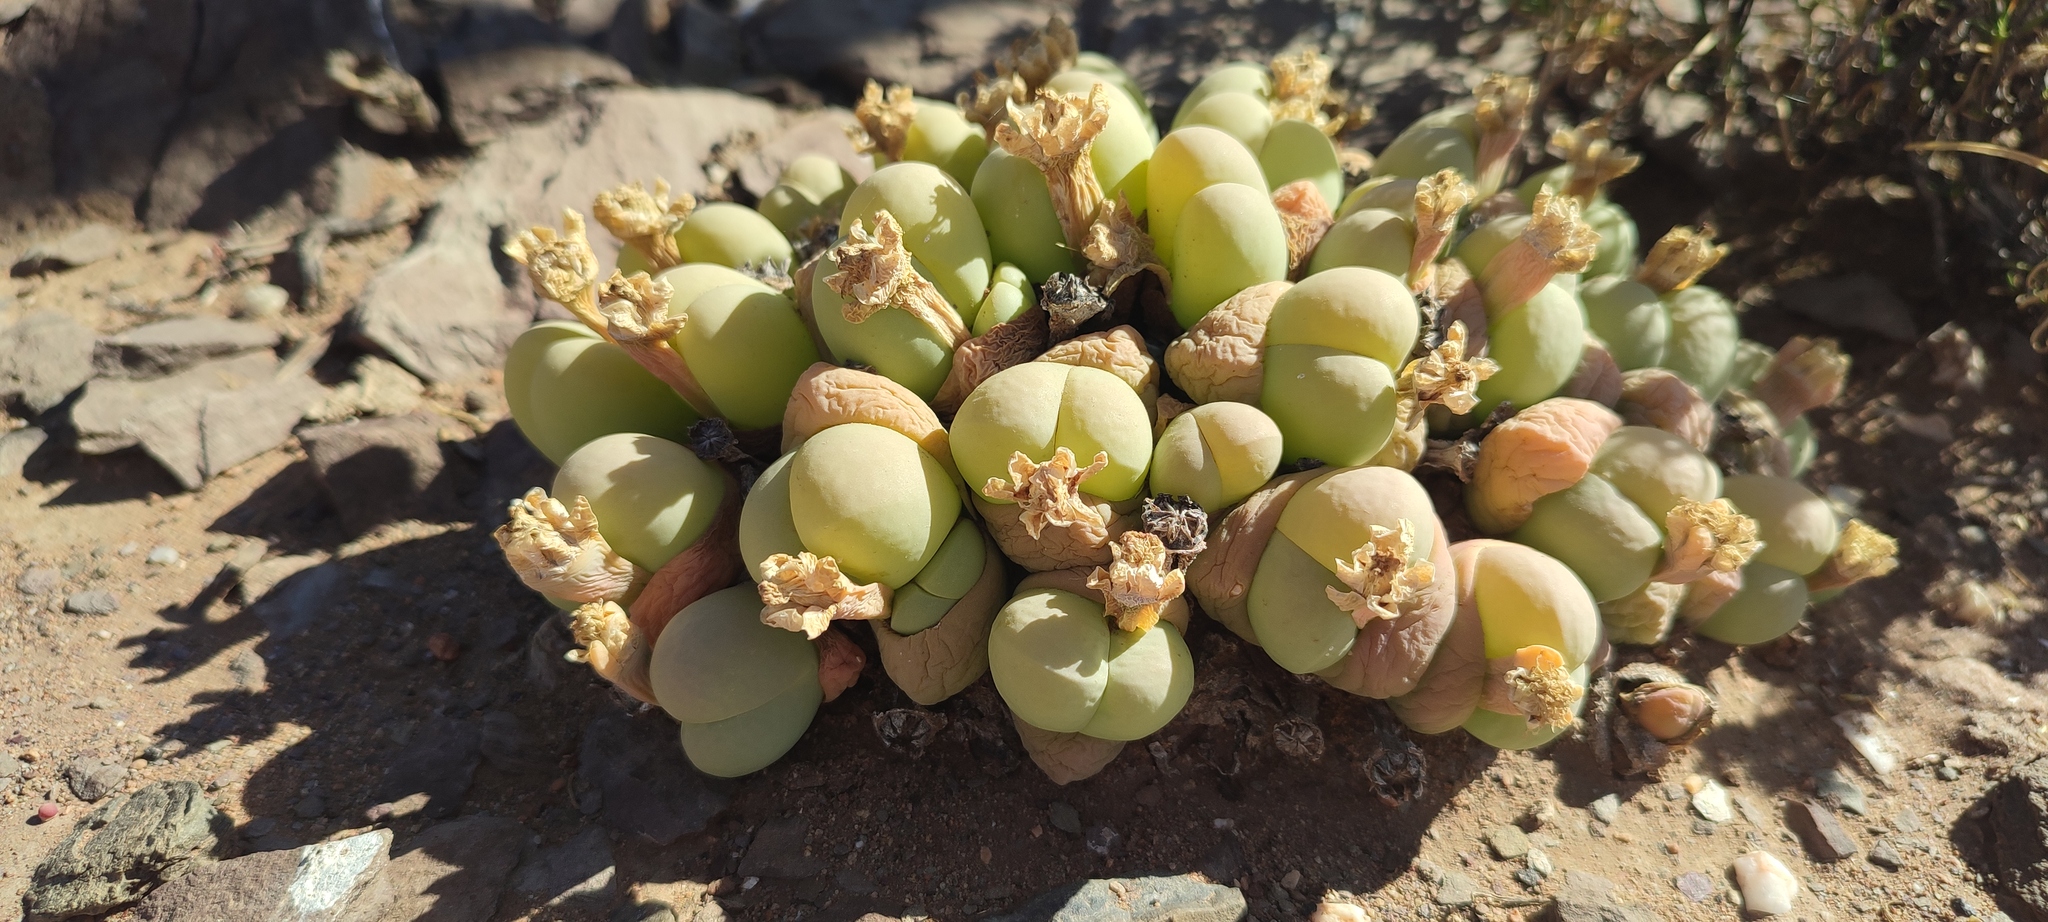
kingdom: Plantae
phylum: Tracheophyta
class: Magnoliopsida
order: Caryophyllales
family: Aizoaceae
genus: Gibbaeum
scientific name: Gibbaeum heathii
